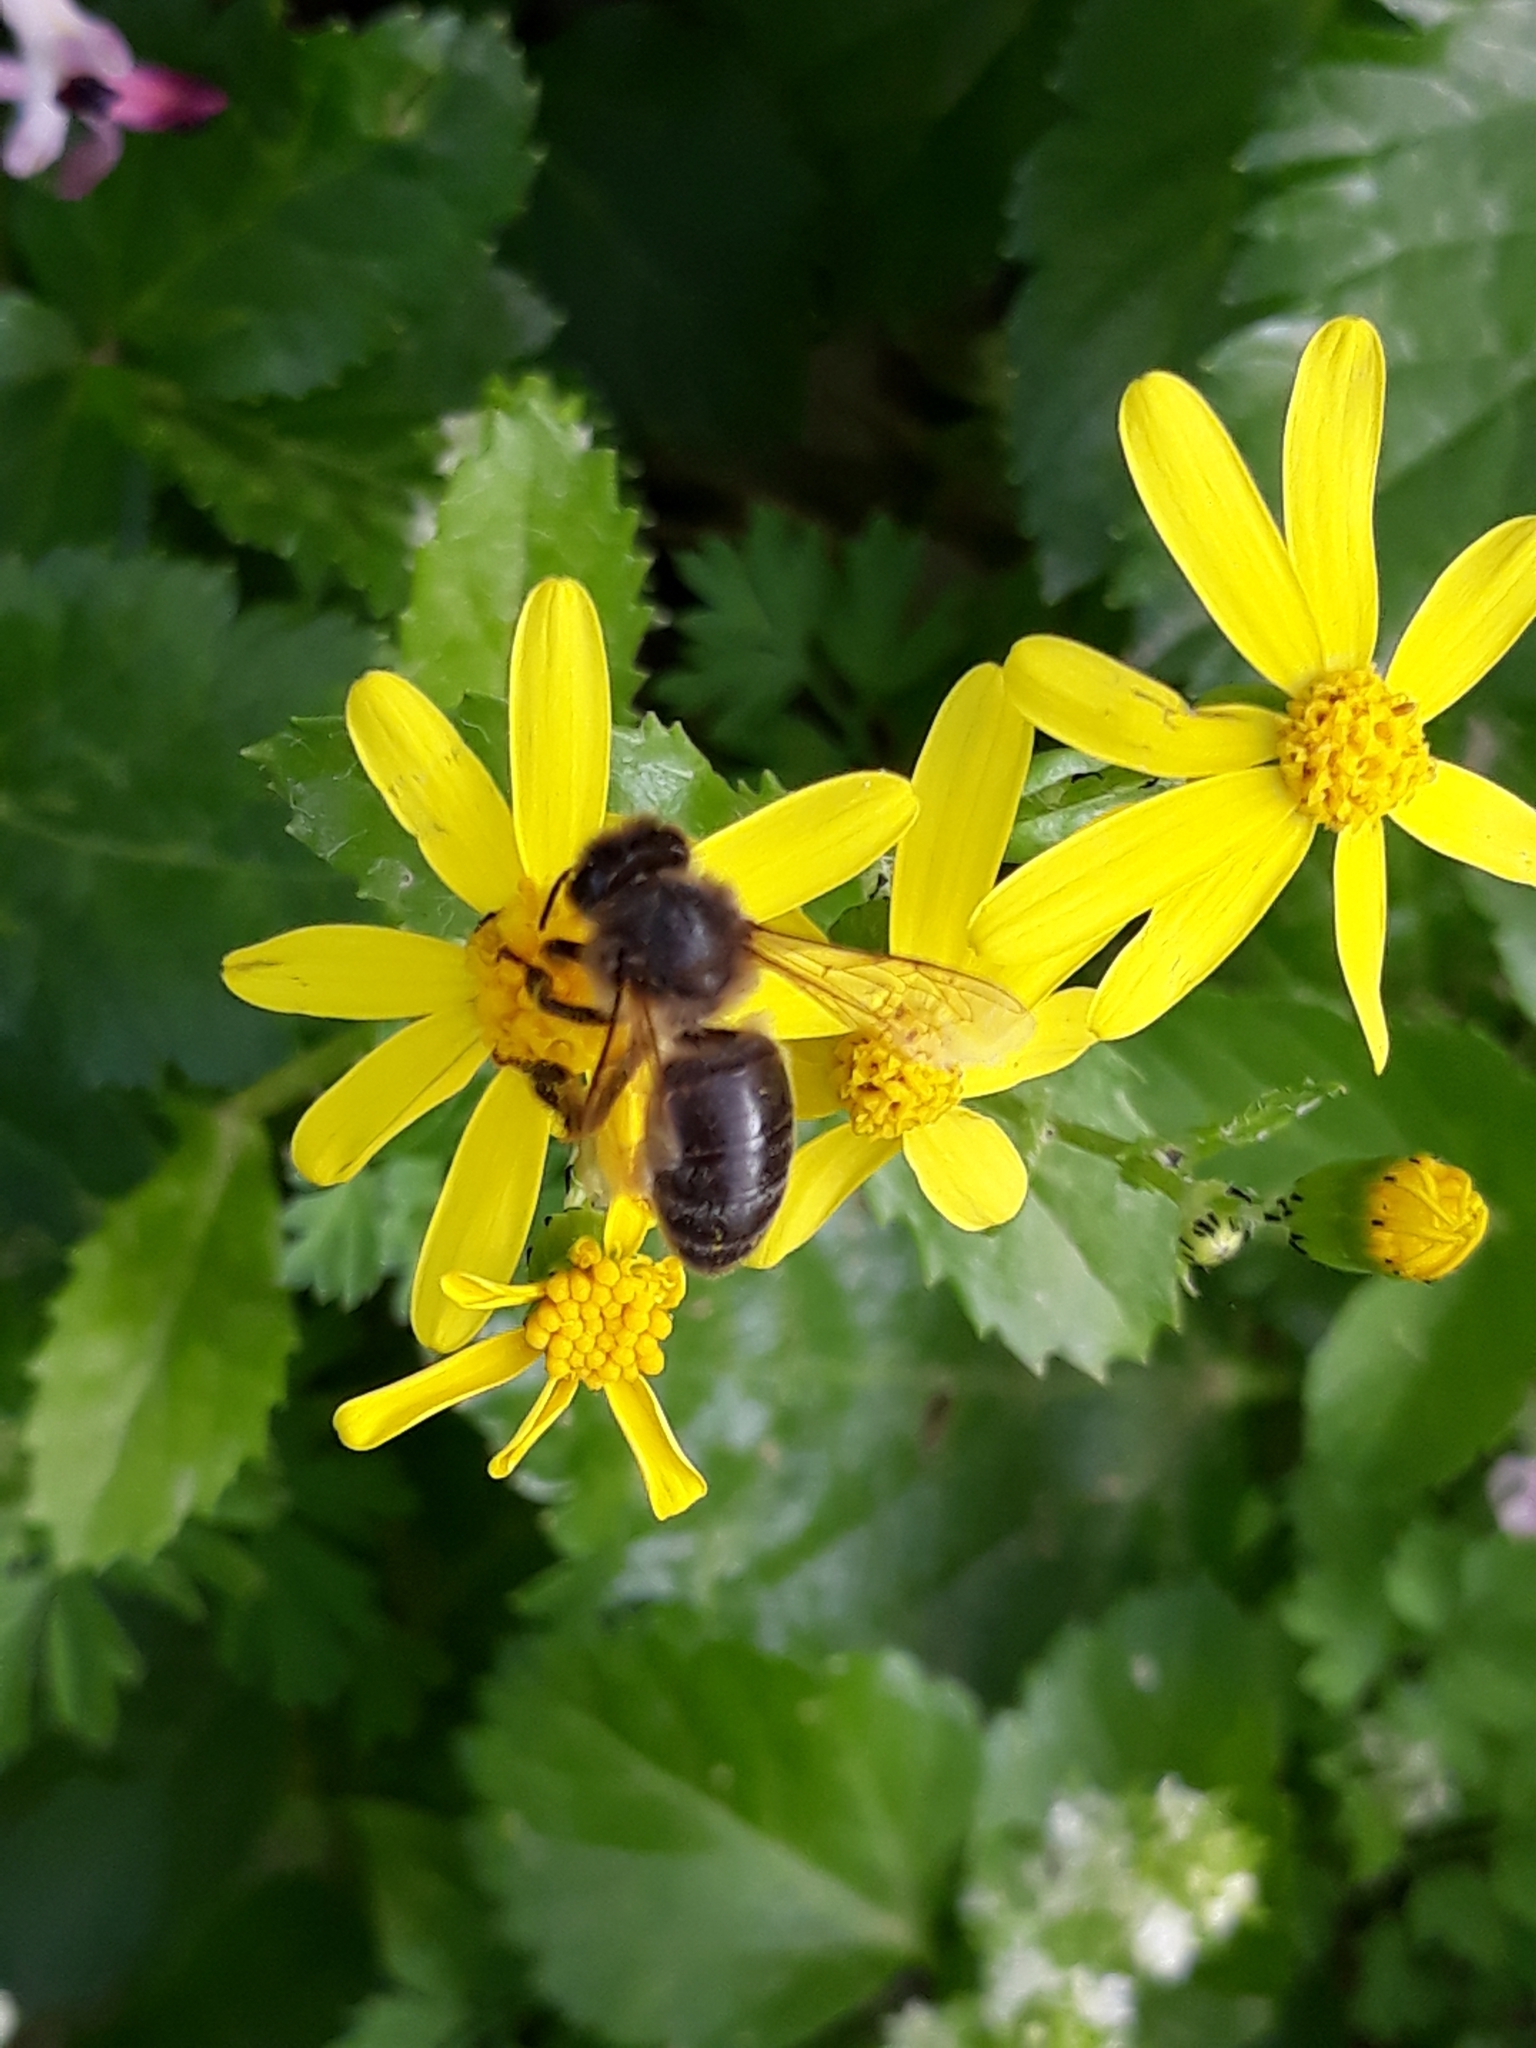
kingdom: Animalia
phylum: Arthropoda
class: Insecta
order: Hymenoptera
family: Apidae
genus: Apis
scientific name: Apis mellifera
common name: Honey bee
